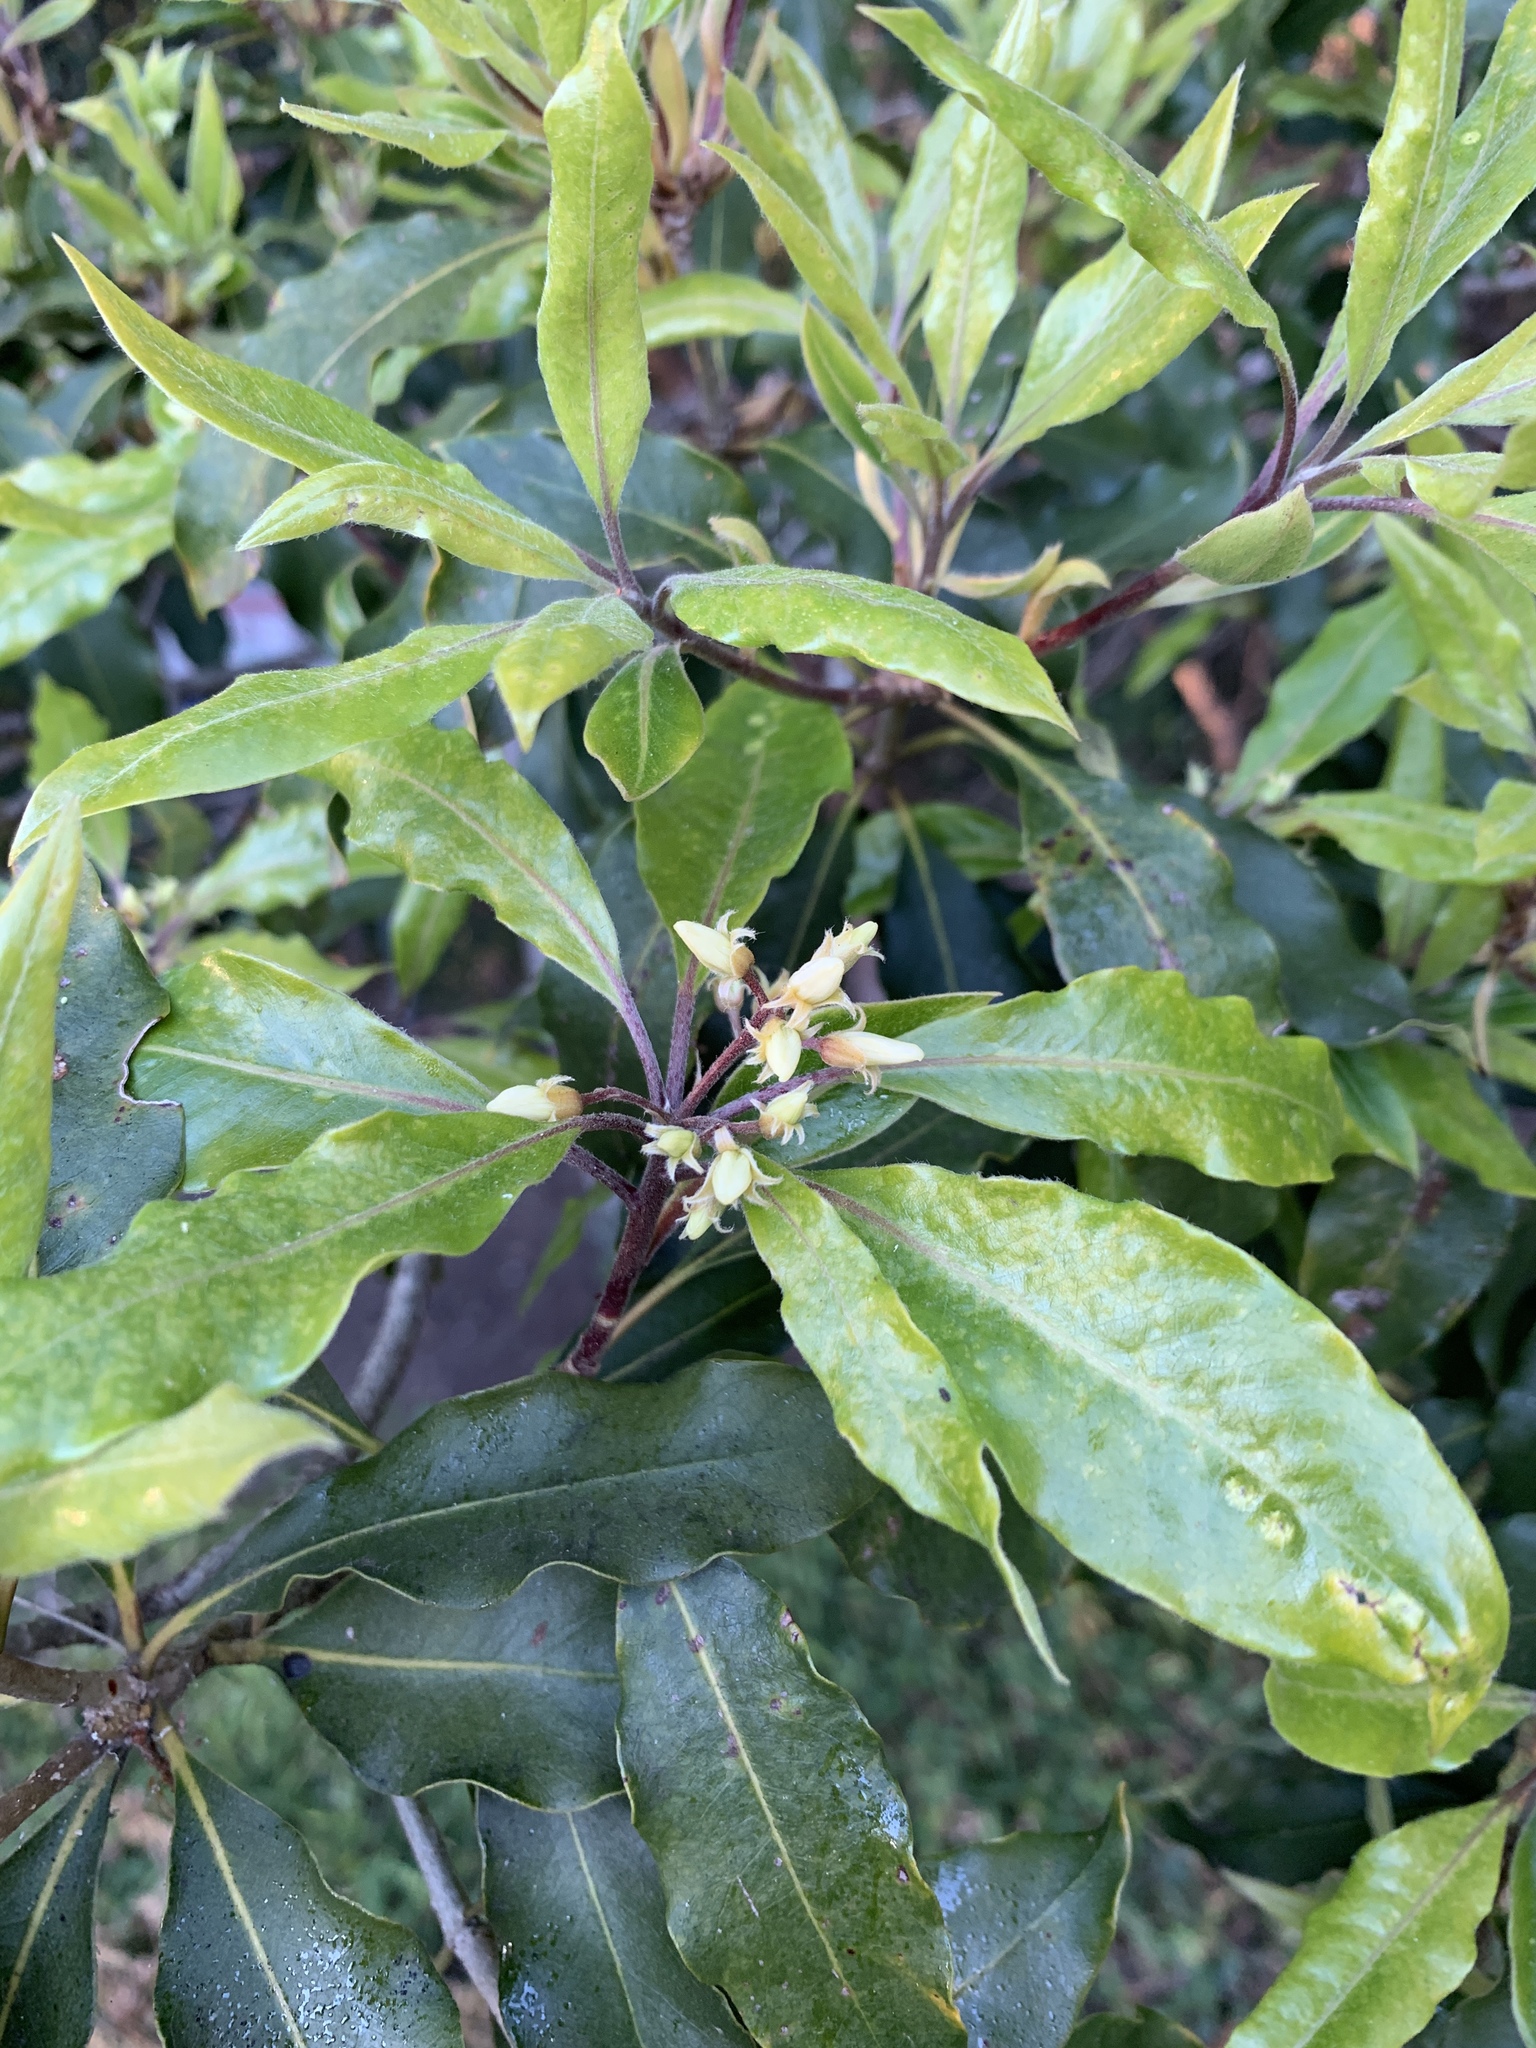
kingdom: Plantae
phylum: Tracheophyta
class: Magnoliopsida
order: Apiales
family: Pittosporaceae
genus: Pittosporum
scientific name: Pittosporum undulatum
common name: Australian cheesewood
